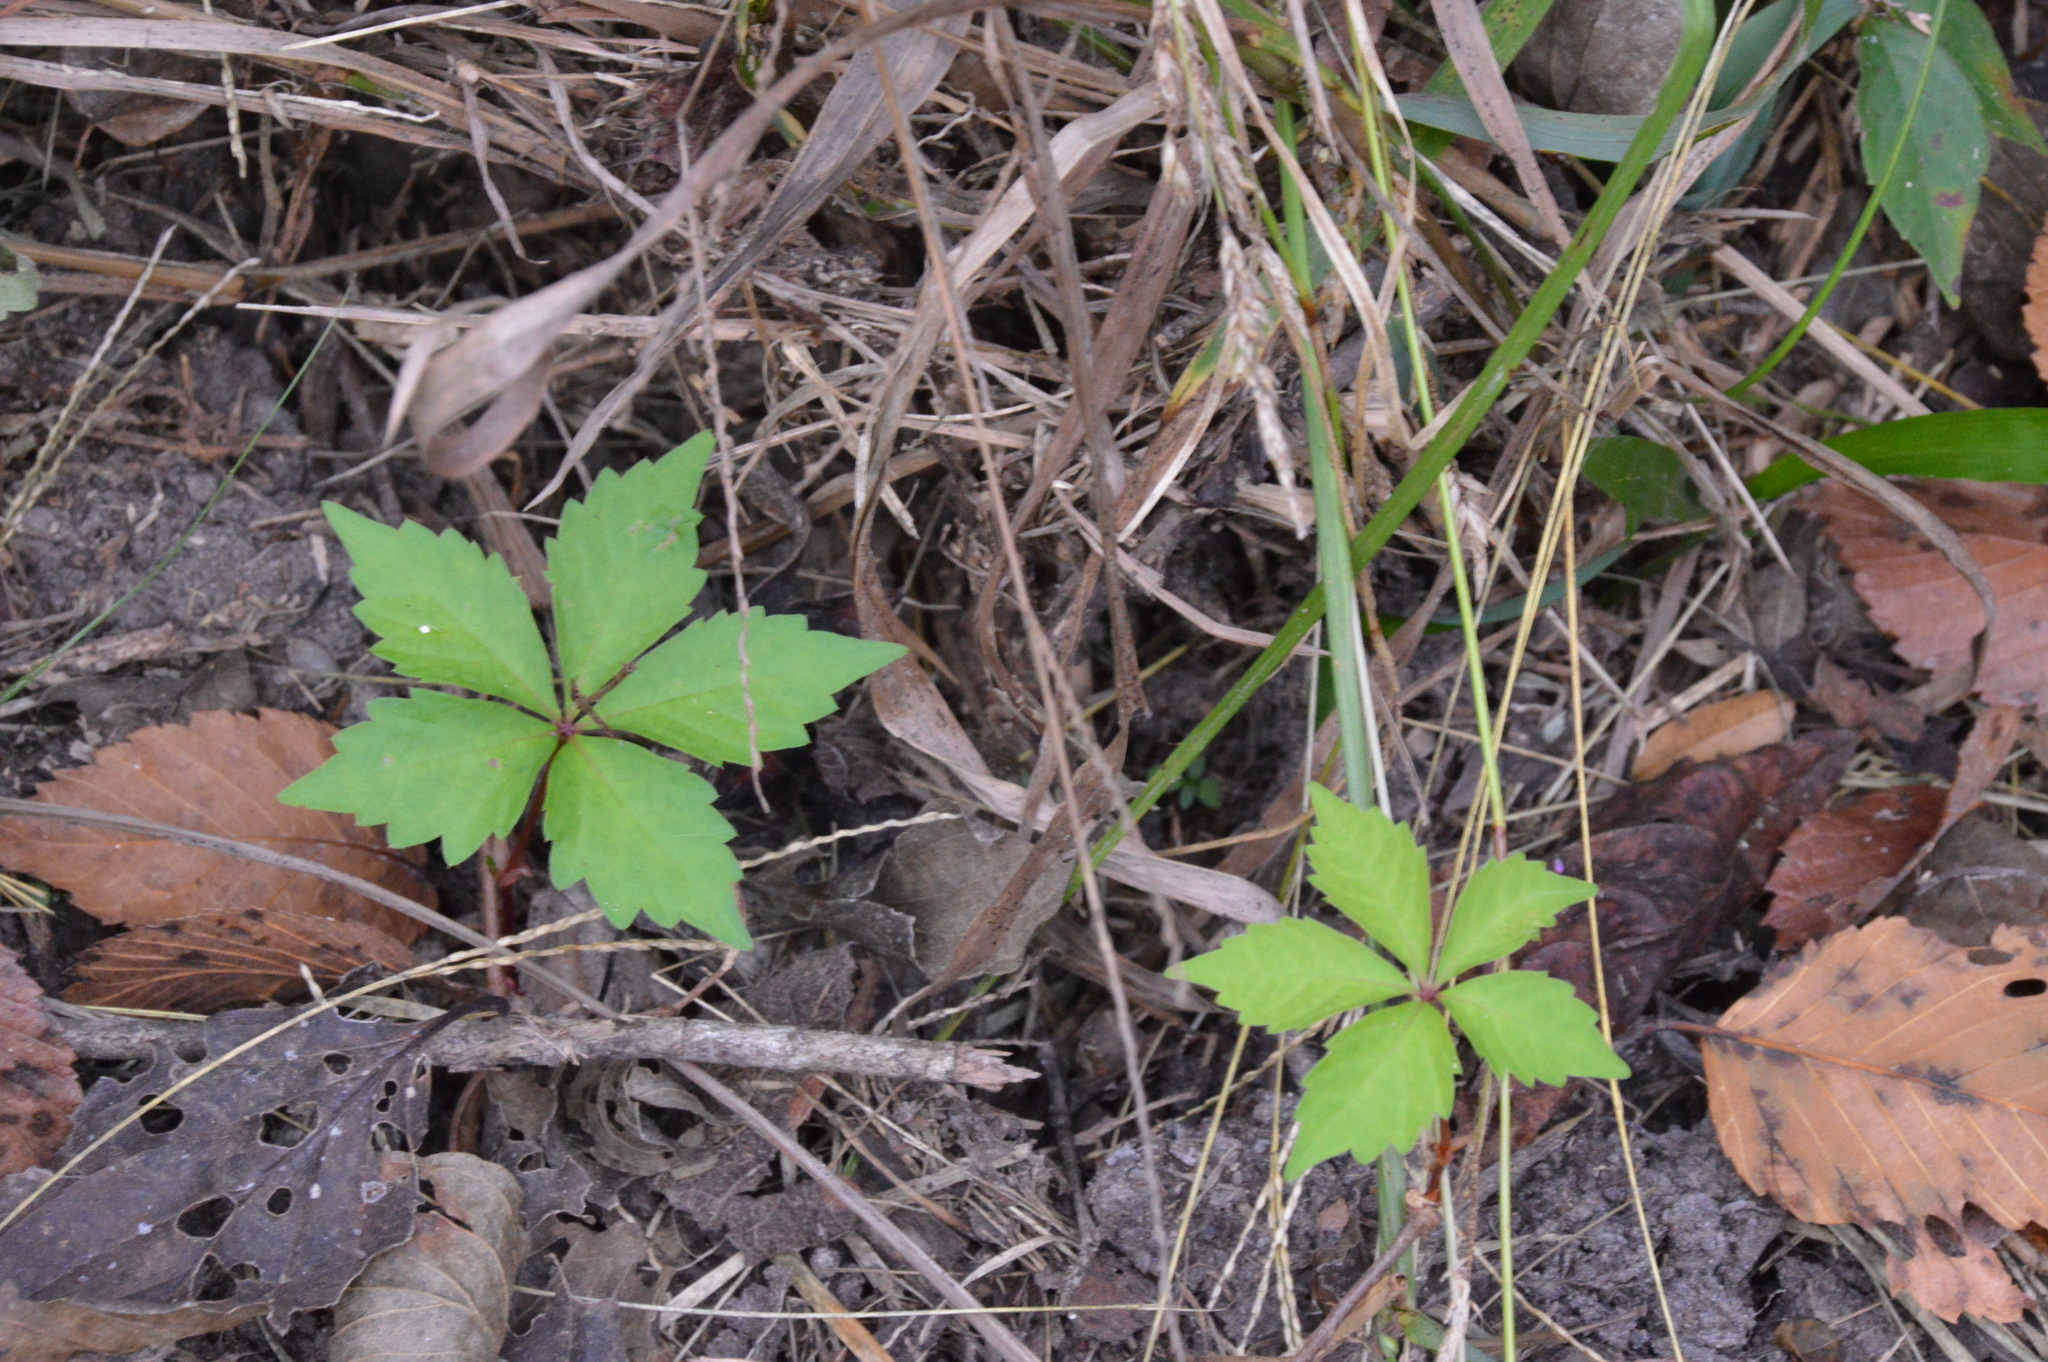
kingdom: Plantae
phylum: Tracheophyta
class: Magnoliopsida
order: Vitales
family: Vitaceae
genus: Parthenocissus
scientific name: Parthenocissus quinquefolia
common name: Virginia-creeper
